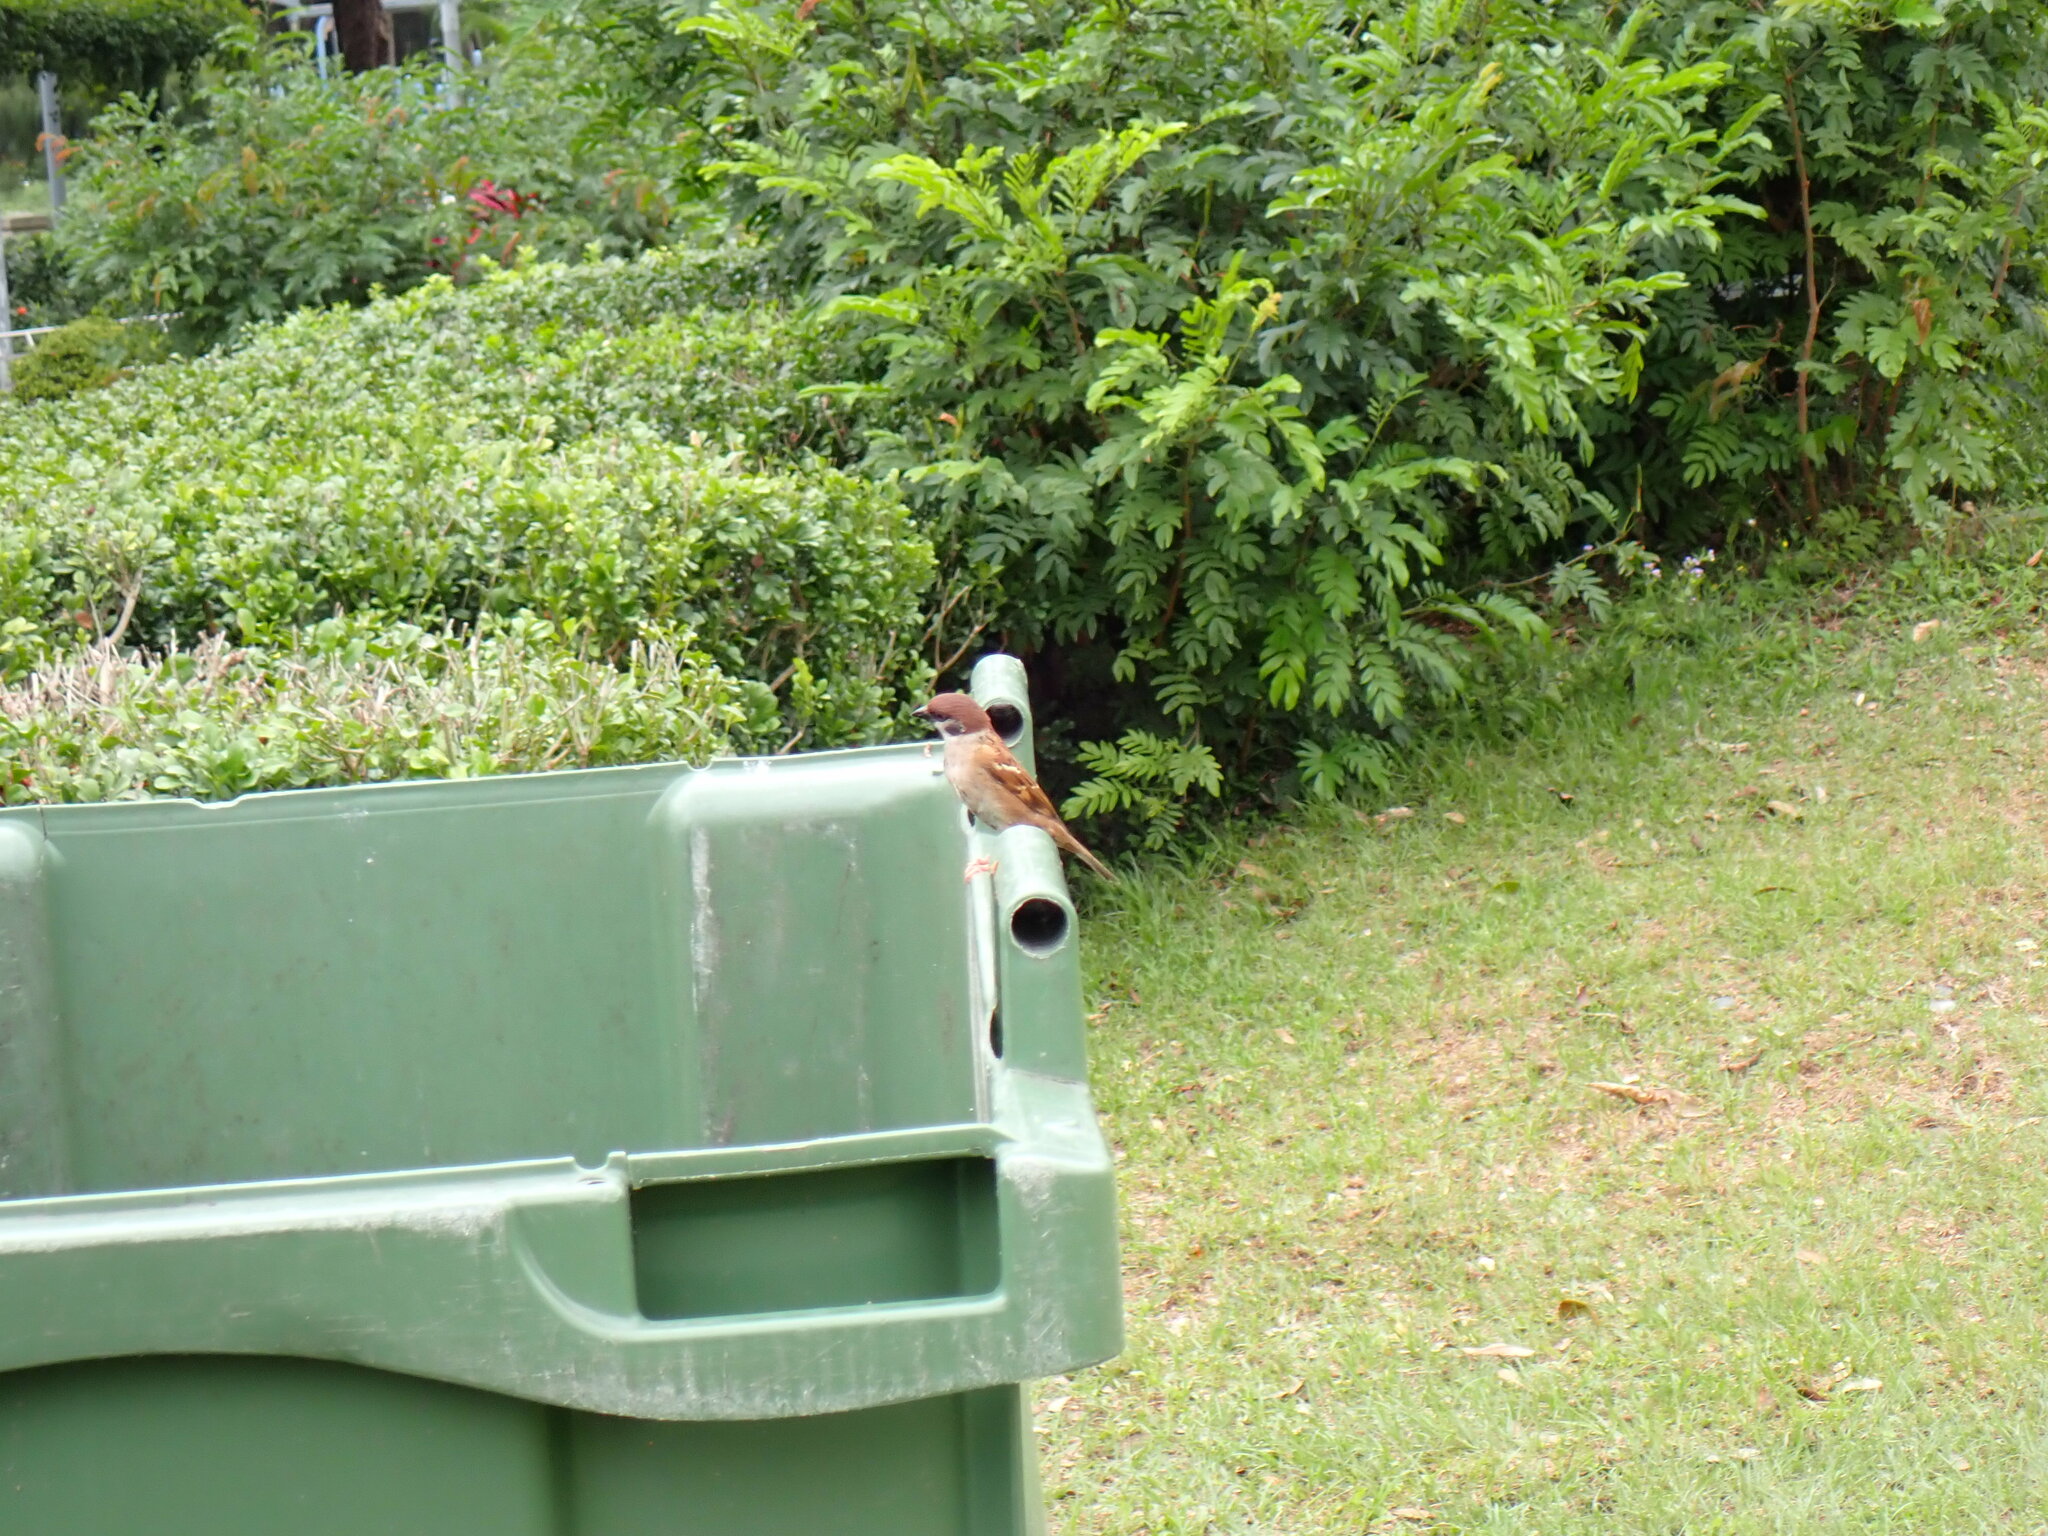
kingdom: Animalia
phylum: Chordata
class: Aves
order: Passeriformes
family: Passeridae
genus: Passer
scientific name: Passer montanus
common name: Eurasian tree sparrow
